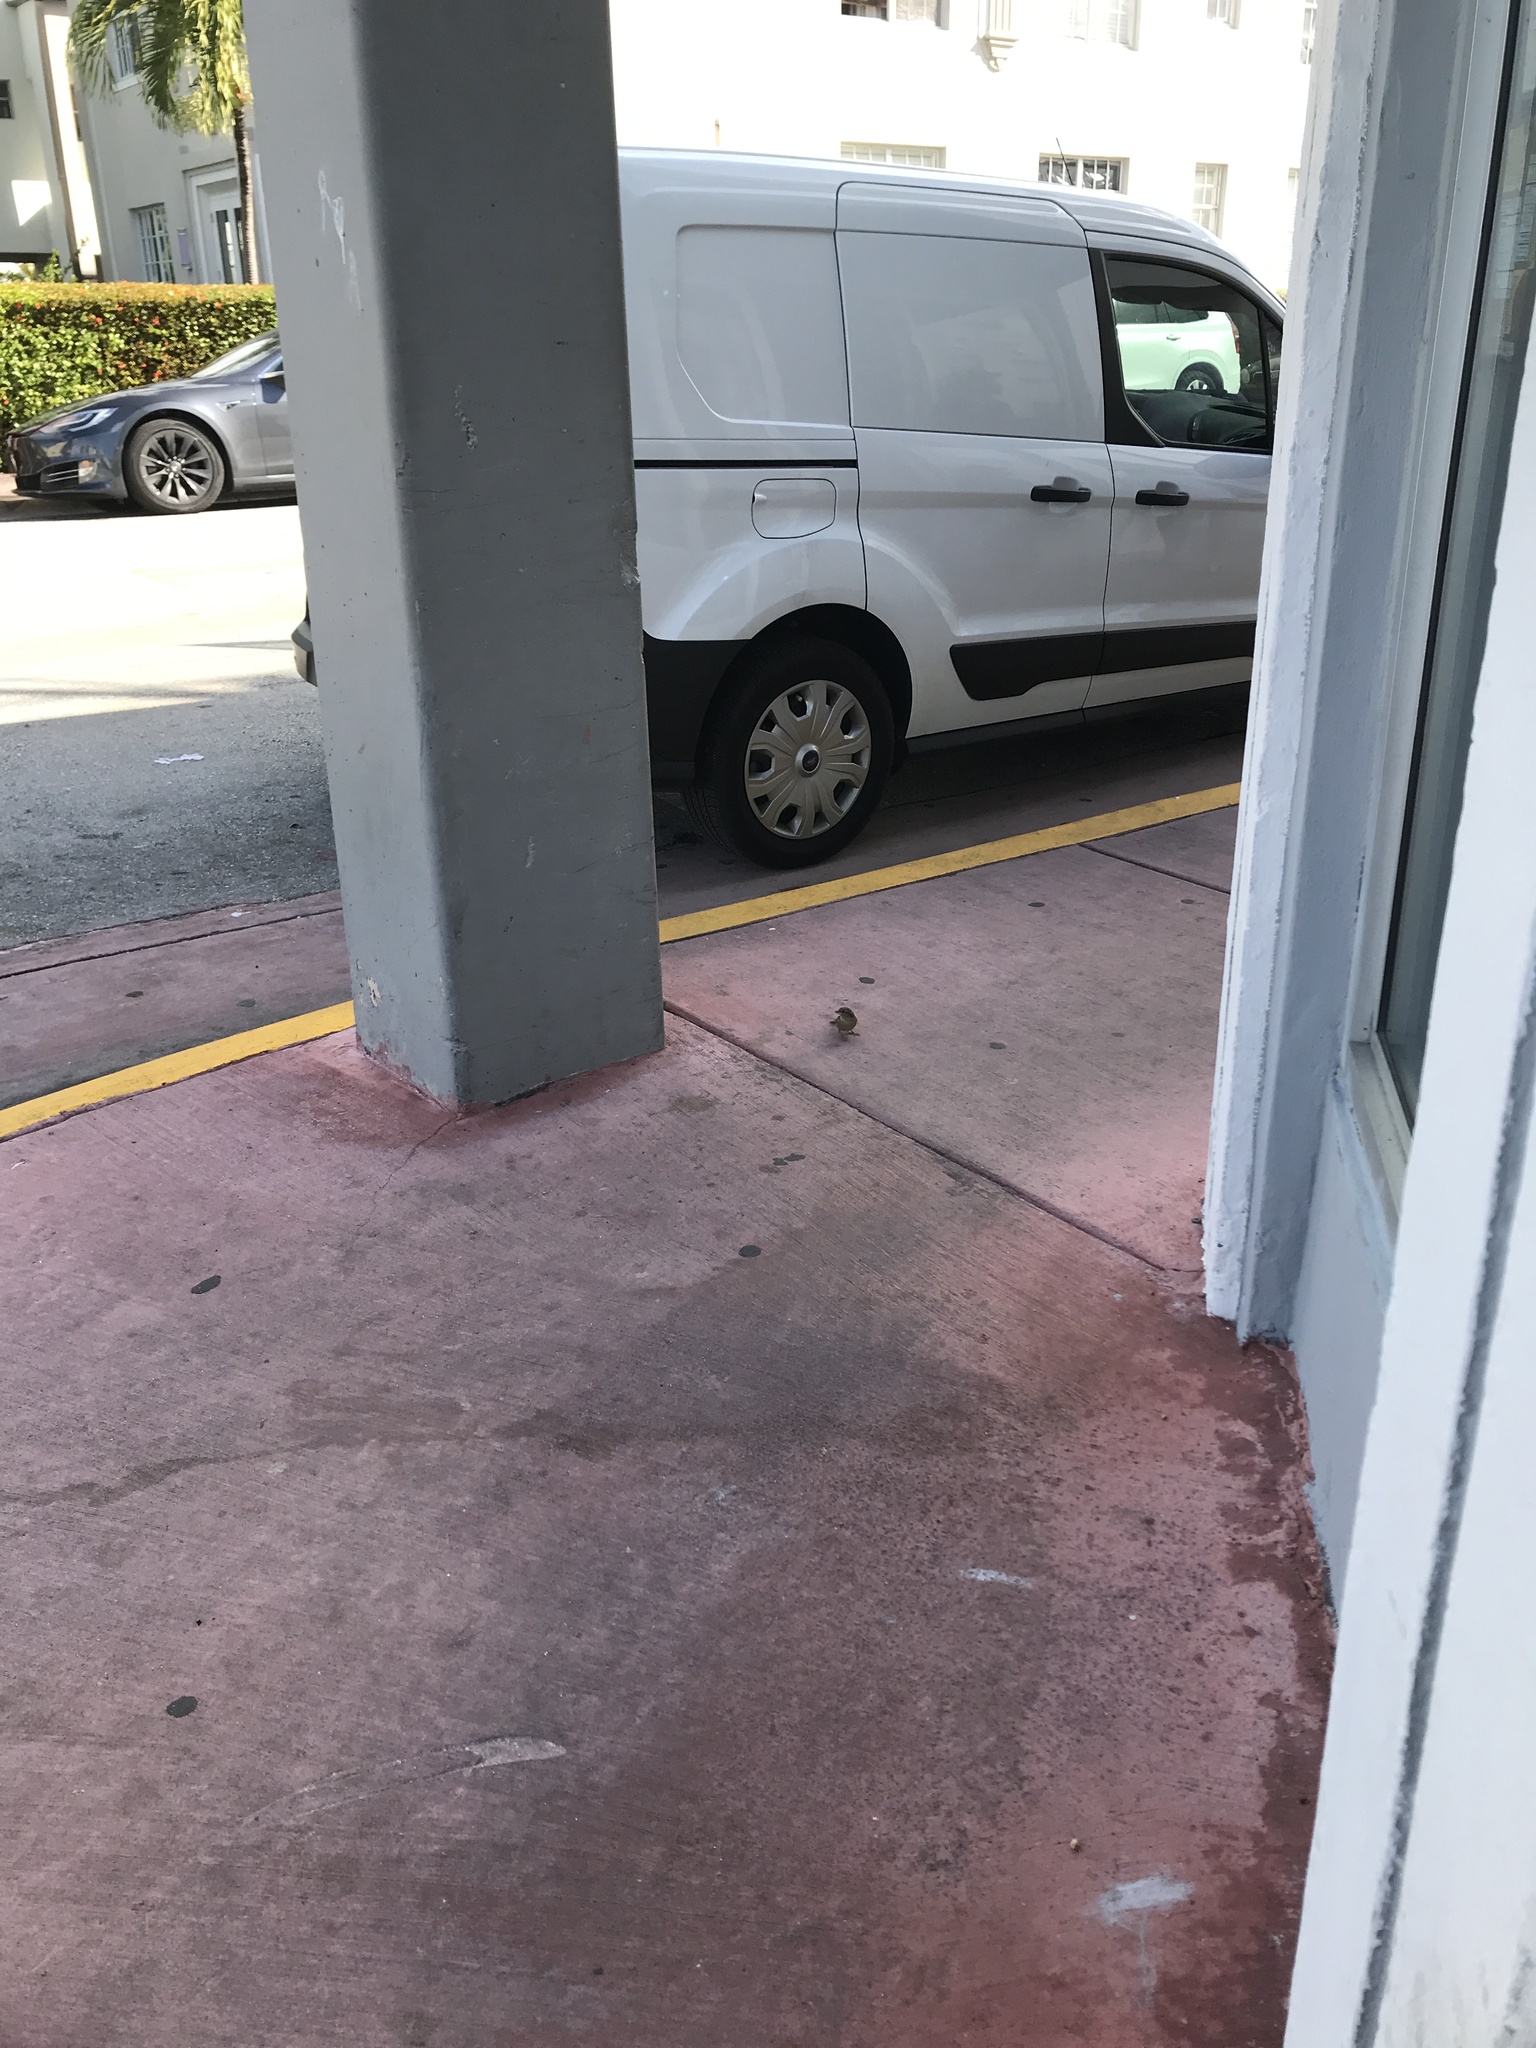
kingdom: Animalia
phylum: Chordata
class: Aves
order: Passeriformes
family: Passeridae
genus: Passer
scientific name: Passer domesticus
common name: House sparrow
